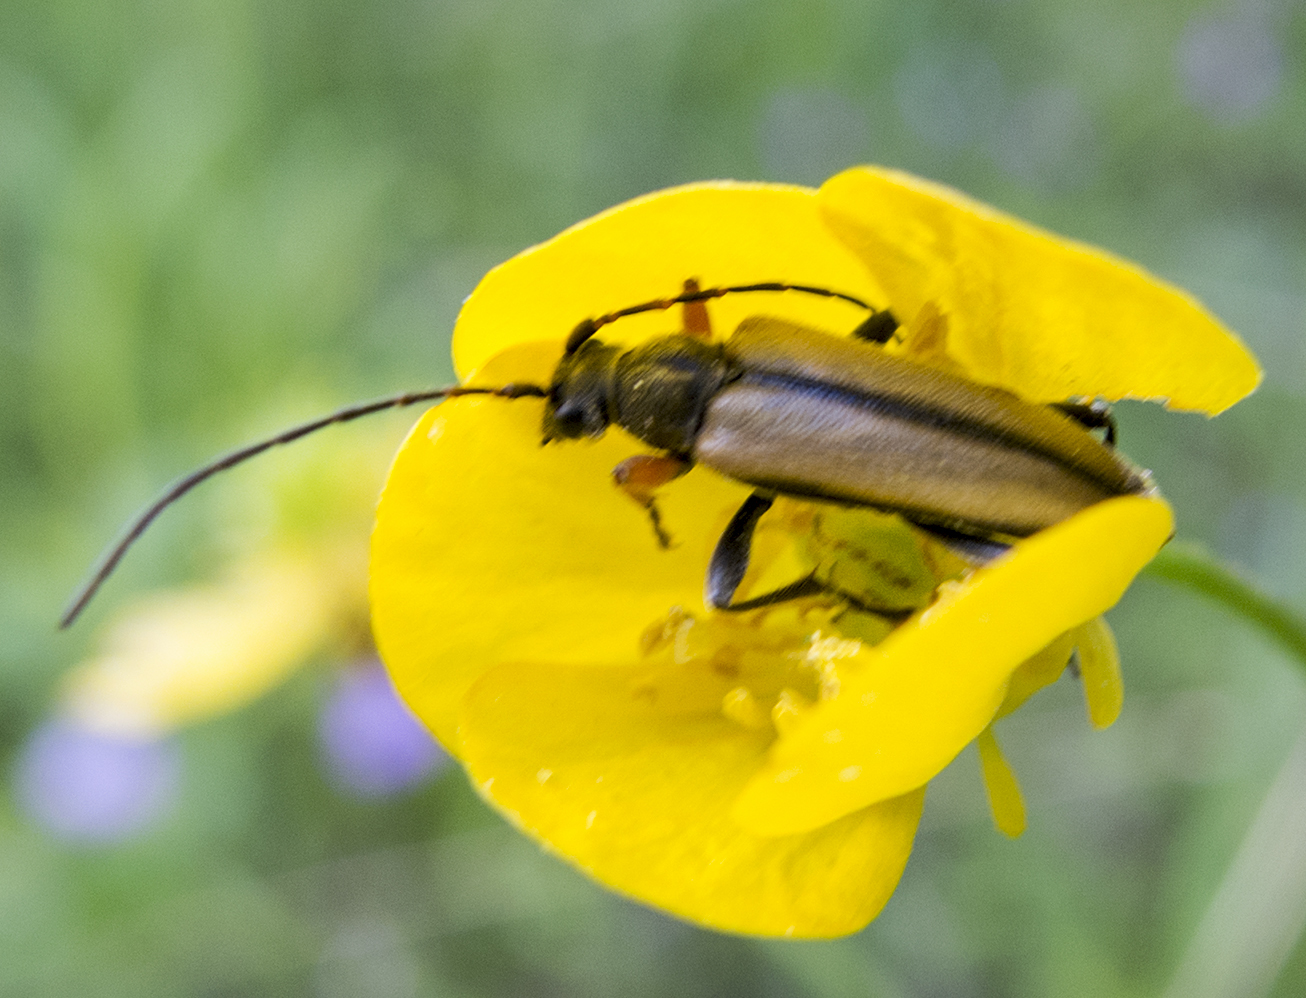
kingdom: Animalia
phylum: Arthropoda
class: Insecta
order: Coleoptera
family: Cerambycidae
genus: Cortodera
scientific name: Cortodera flavimana
